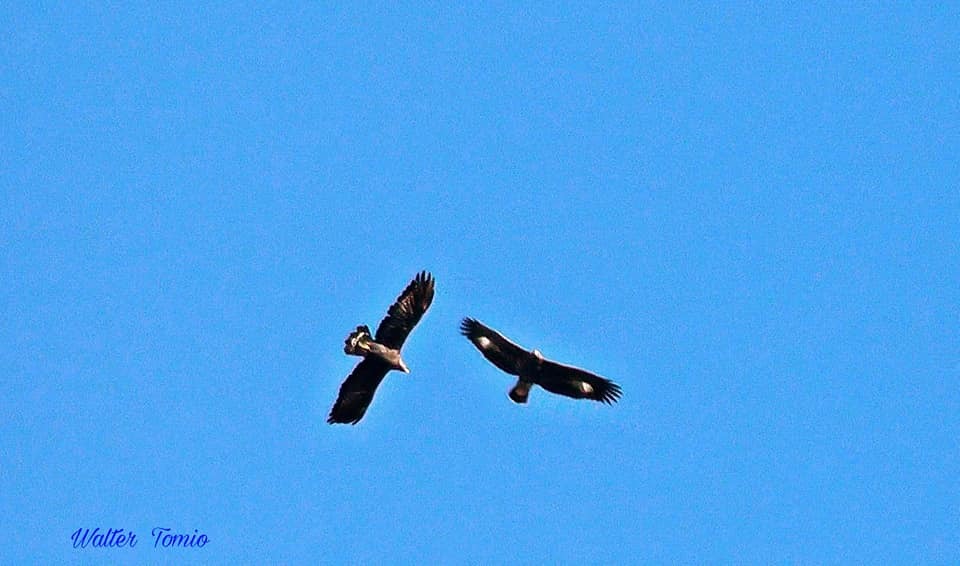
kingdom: Animalia
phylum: Chordata
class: Aves
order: Accipitriformes
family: Accipitridae
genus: Aquila
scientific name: Aquila chrysaetos
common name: Golden eagle
